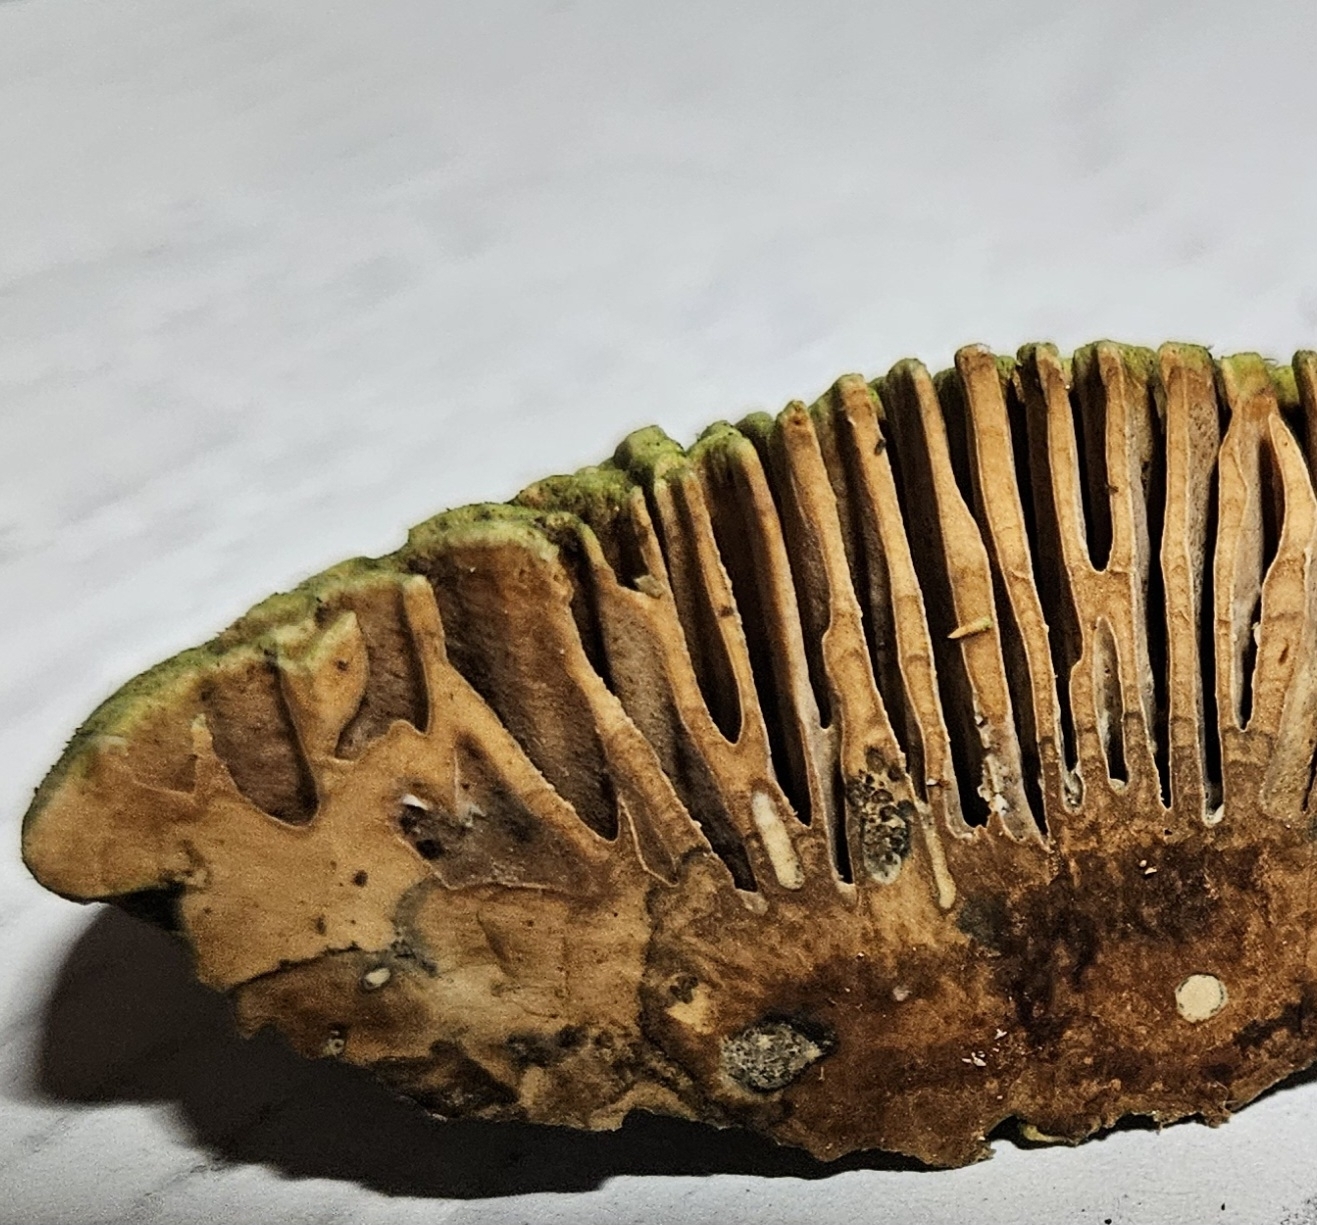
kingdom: Fungi
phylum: Basidiomycota
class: Agaricomycetes
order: Polyporales
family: Fomitopsidaceae
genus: Fomitopsis
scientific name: Fomitopsis
